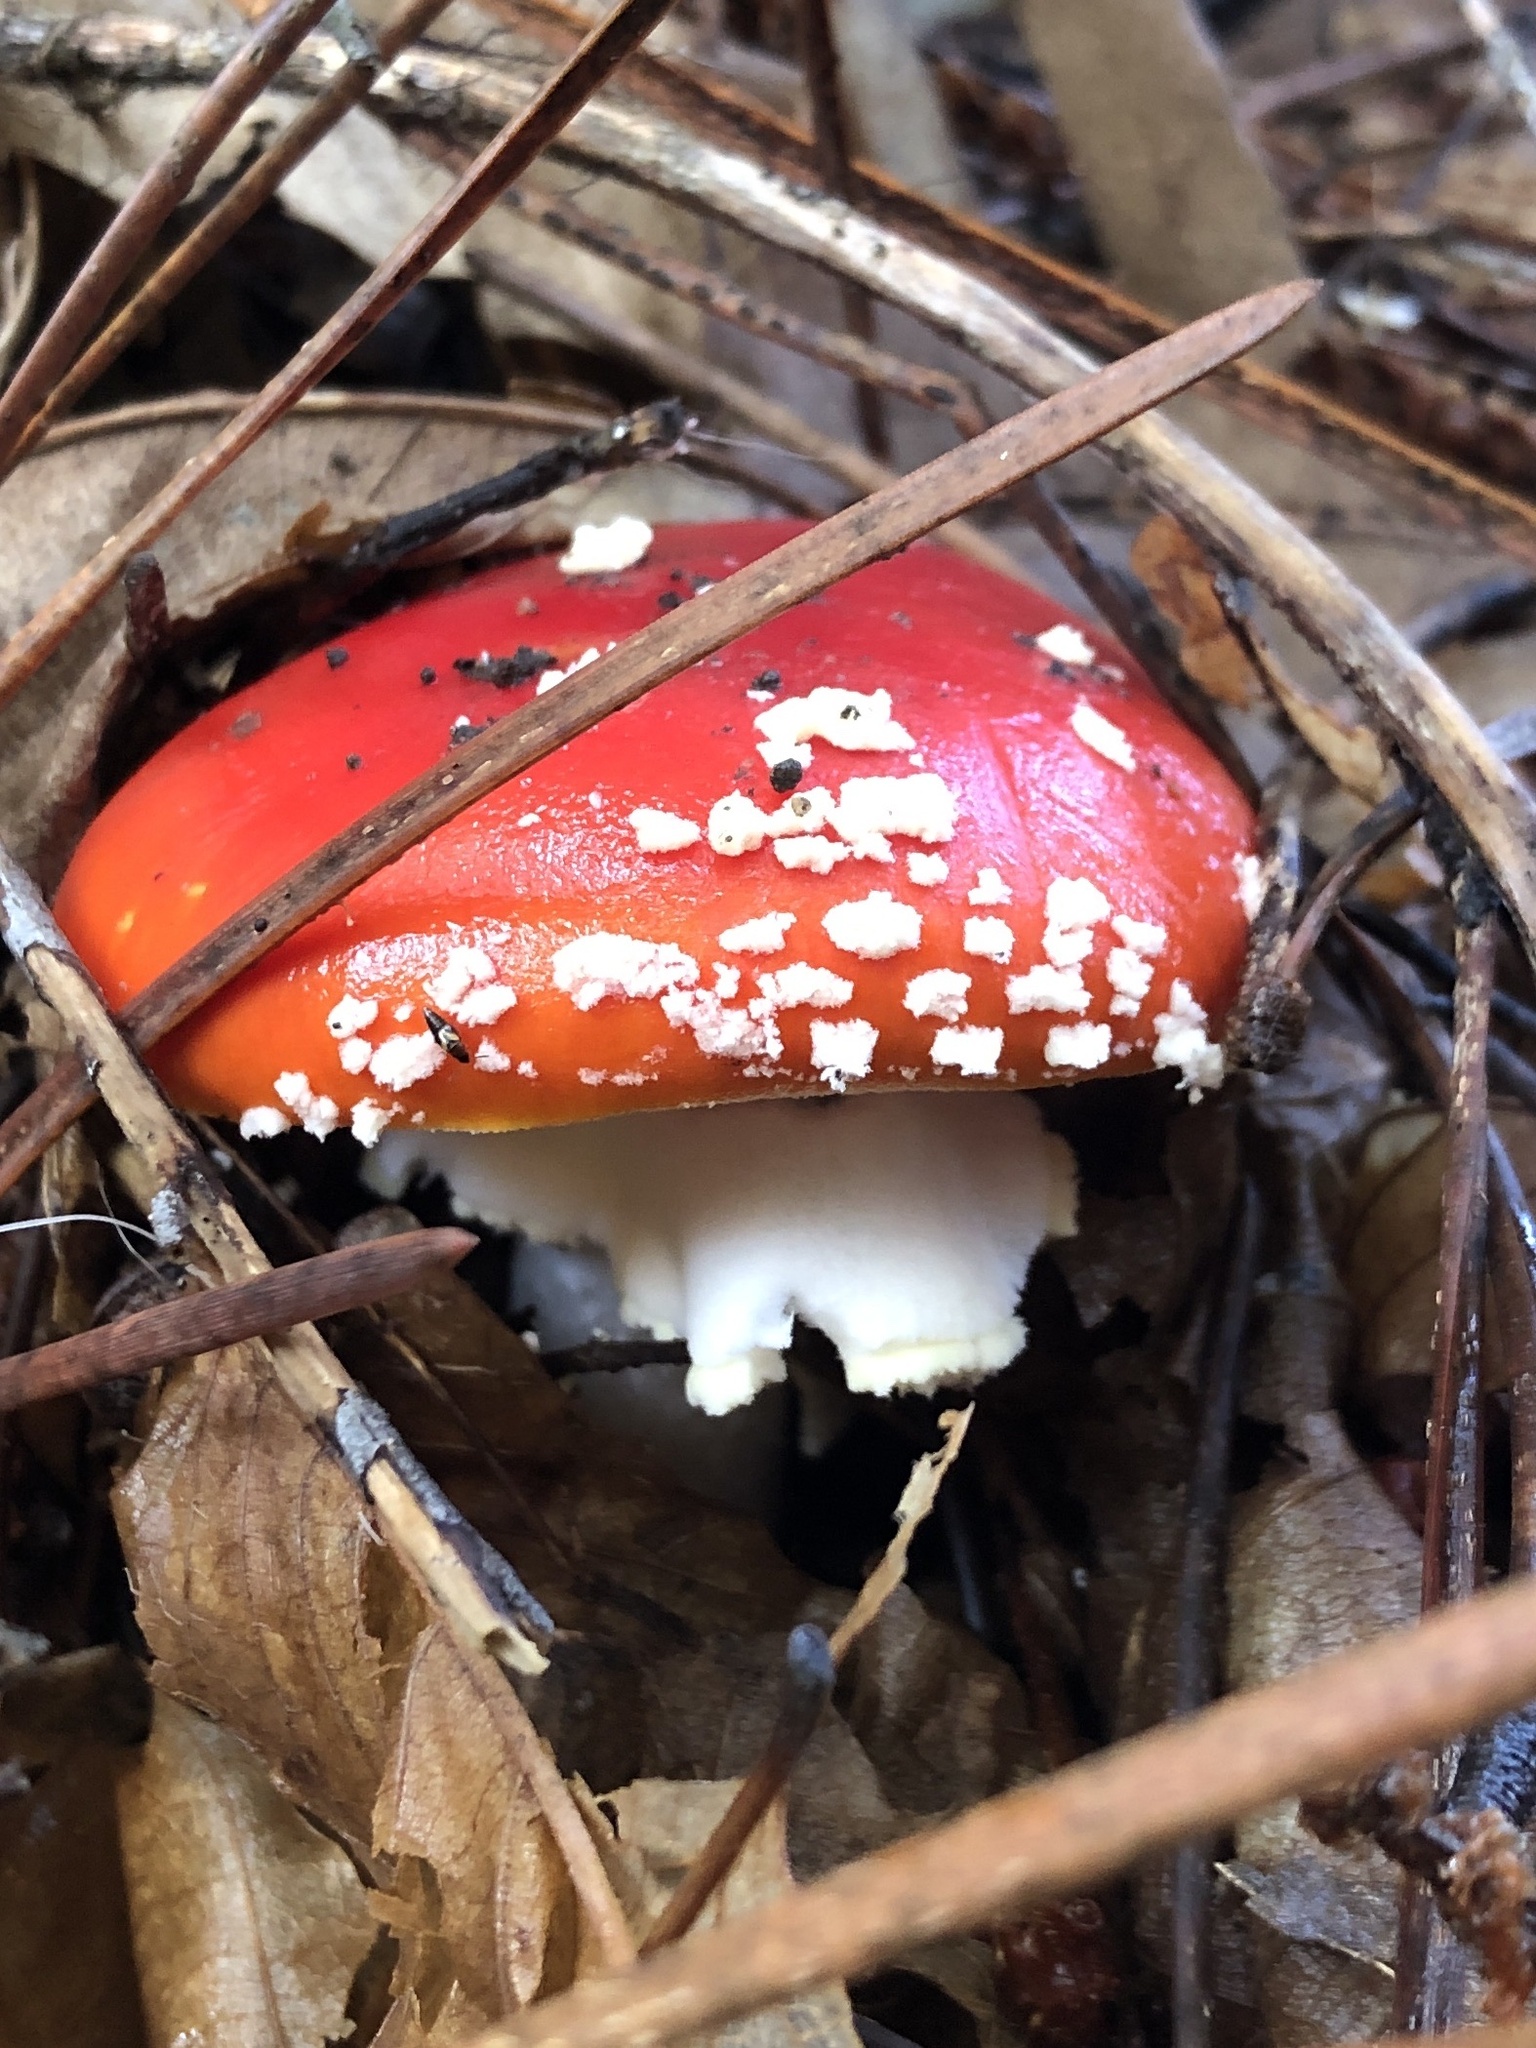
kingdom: Fungi
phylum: Basidiomycota
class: Agaricomycetes
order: Agaricales
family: Amanitaceae
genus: Amanita
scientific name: Amanita muscaria
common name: Fly agaric
